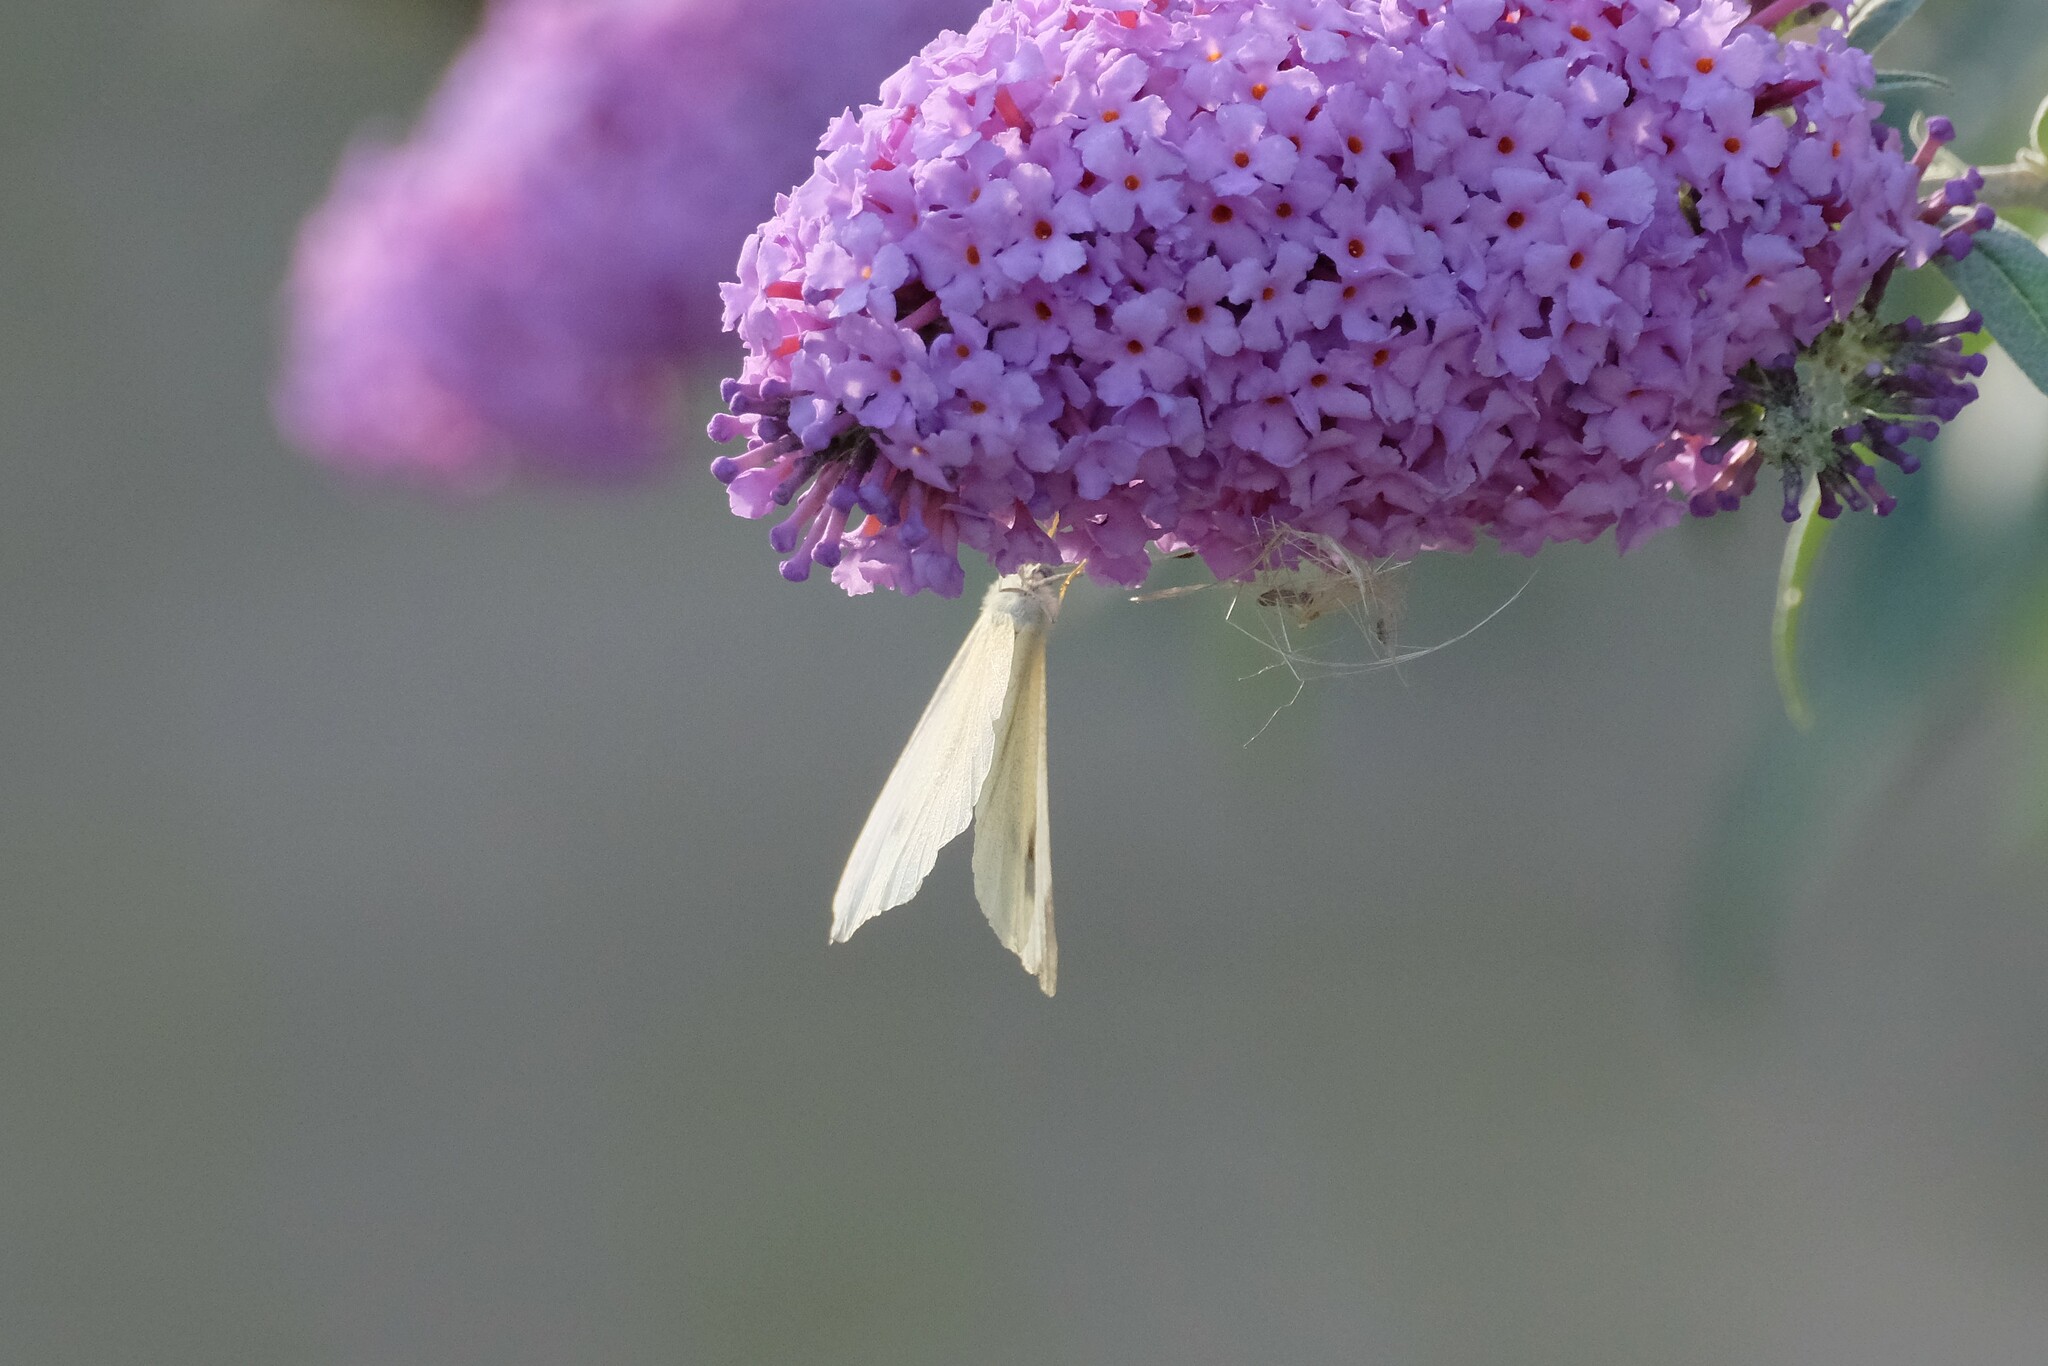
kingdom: Animalia
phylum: Arthropoda
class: Insecta
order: Lepidoptera
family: Pieridae
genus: Pieris
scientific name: Pieris rapae
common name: Small white
